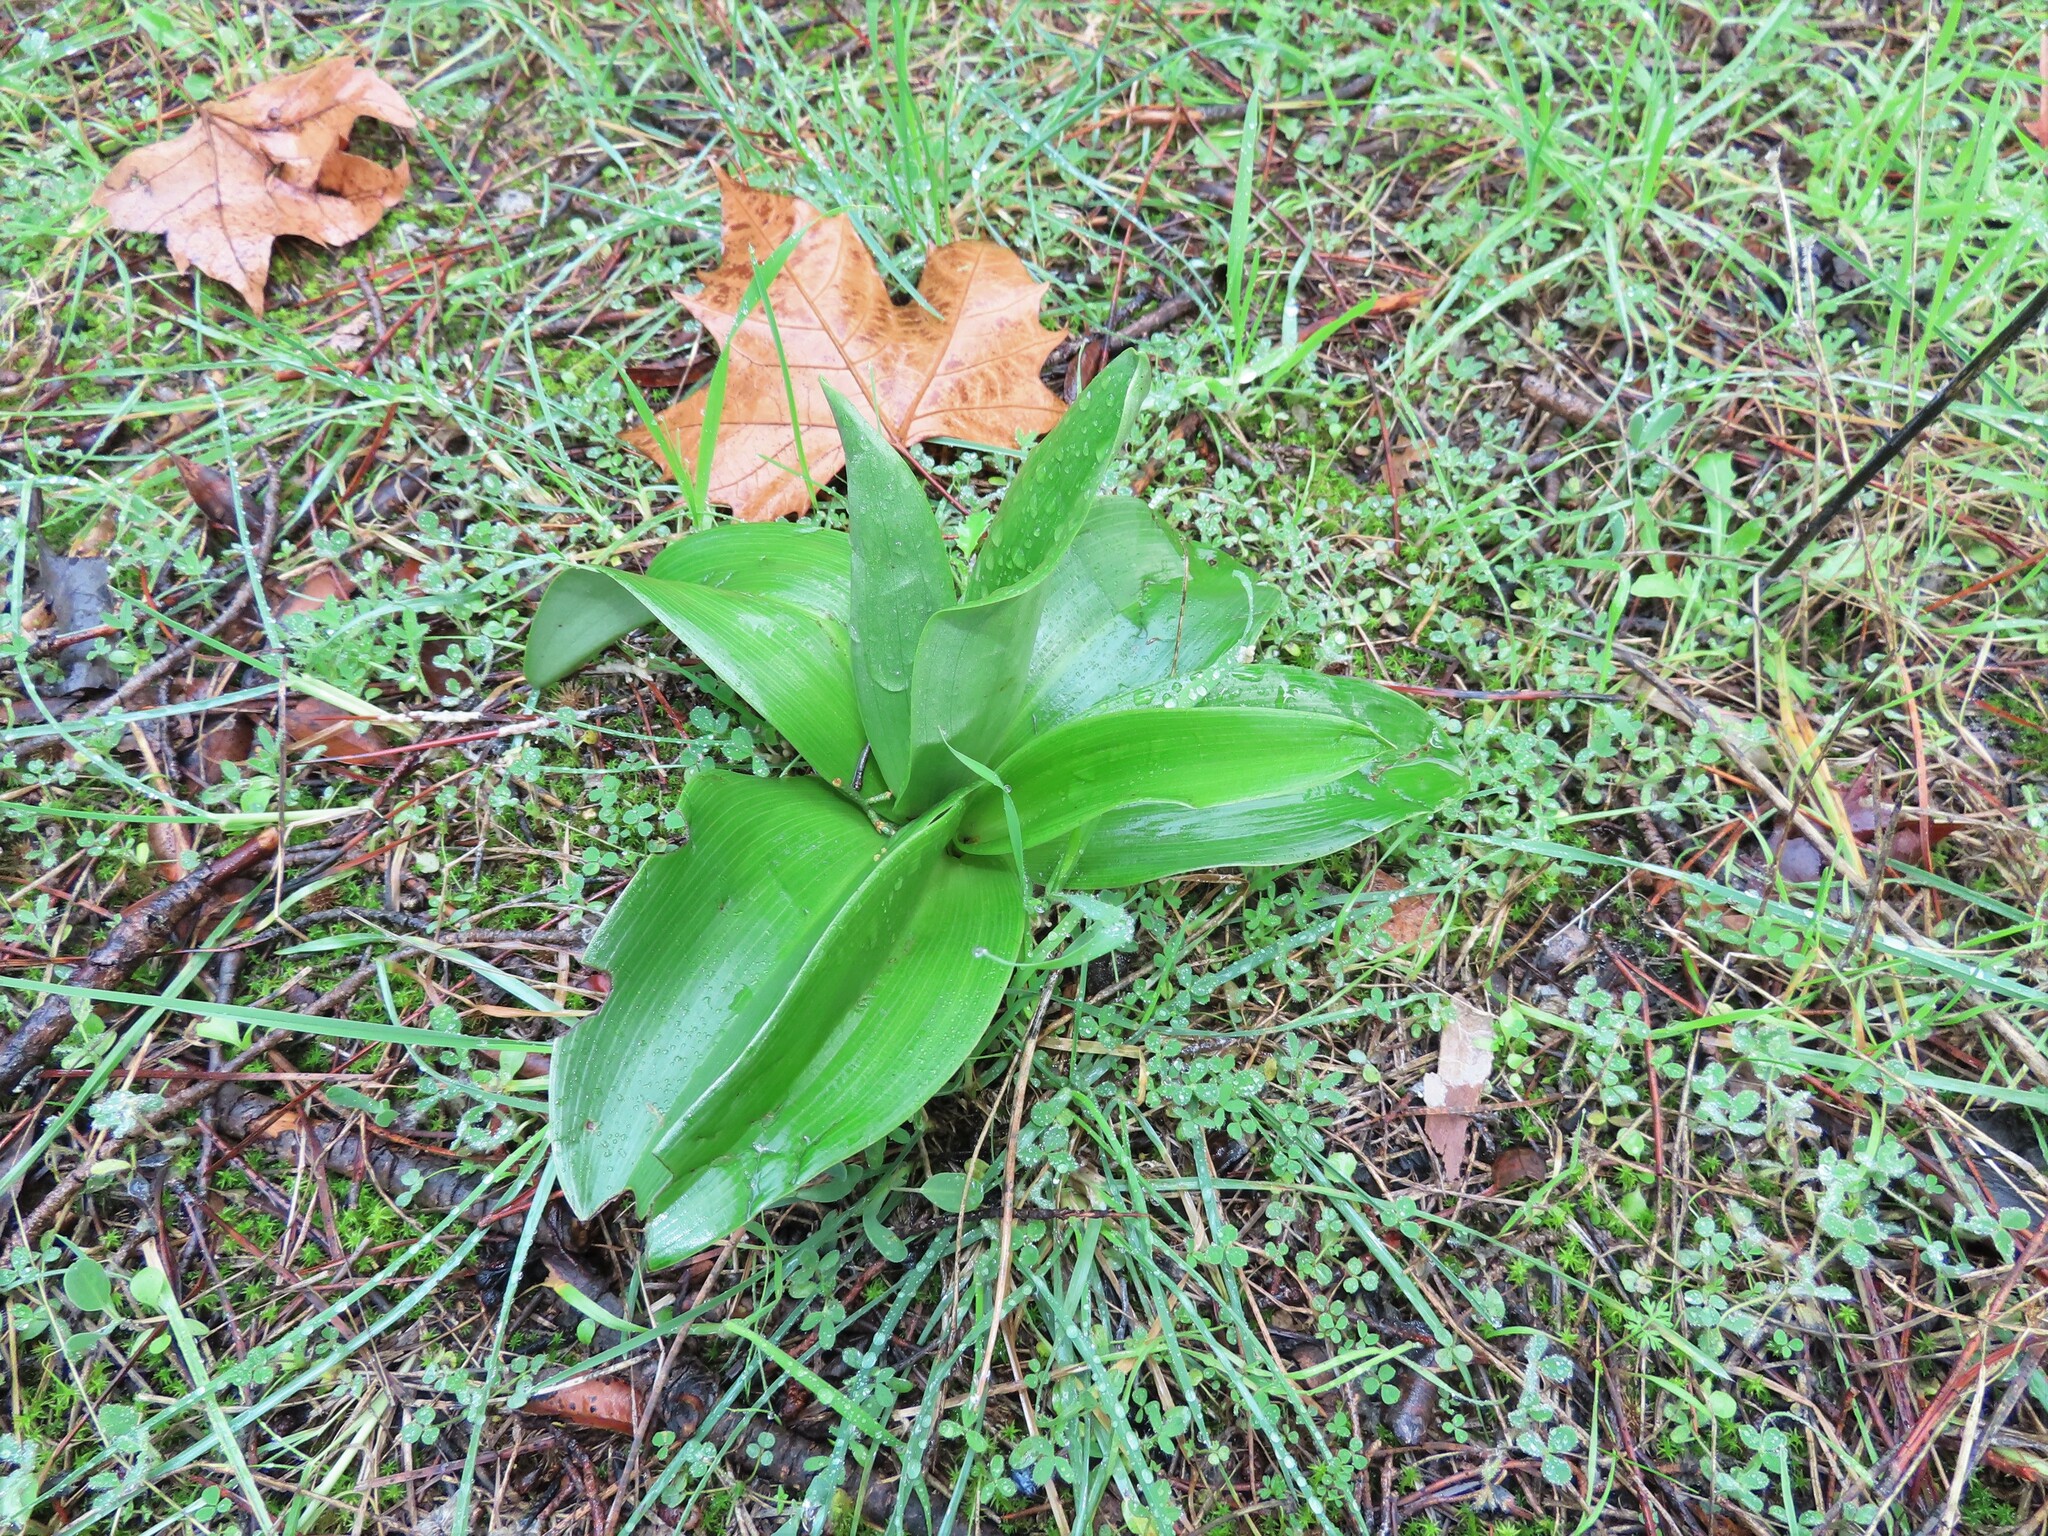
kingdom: Plantae
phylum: Tracheophyta
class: Liliopsida
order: Asparagales
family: Orchidaceae
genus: Himantoglossum
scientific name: Himantoglossum robertianum
